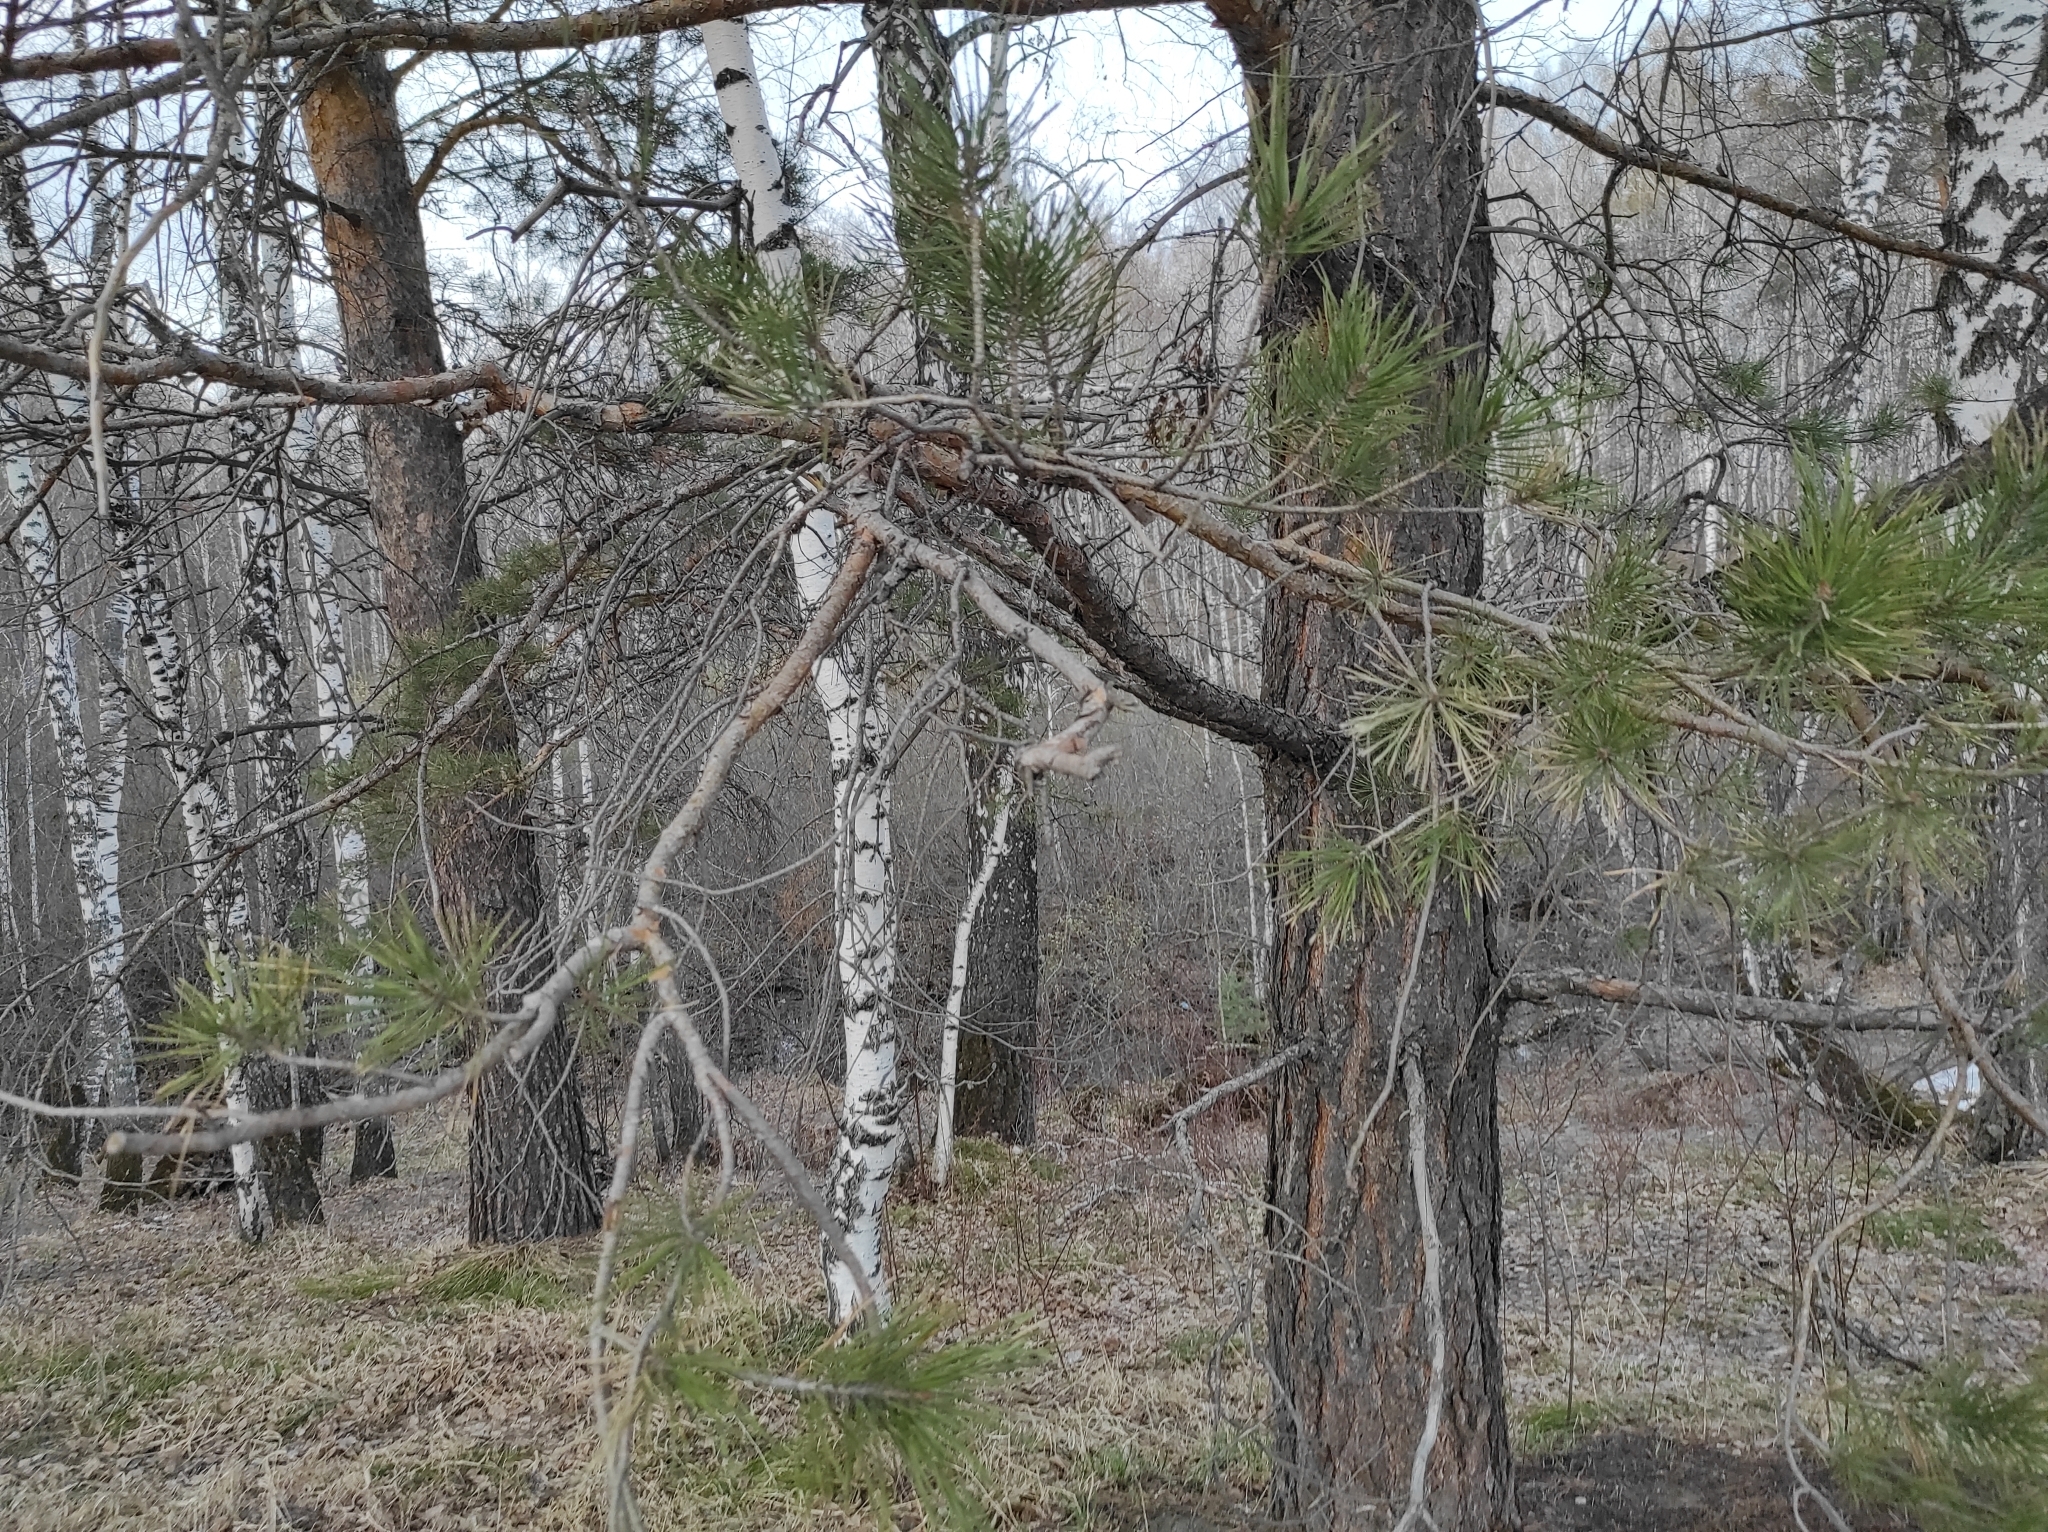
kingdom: Plantae
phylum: Tracheophyta
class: Pinopsida
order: Pinales
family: Pinaceae
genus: Pinus
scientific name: Pinus sylvestris
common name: Scots pine
